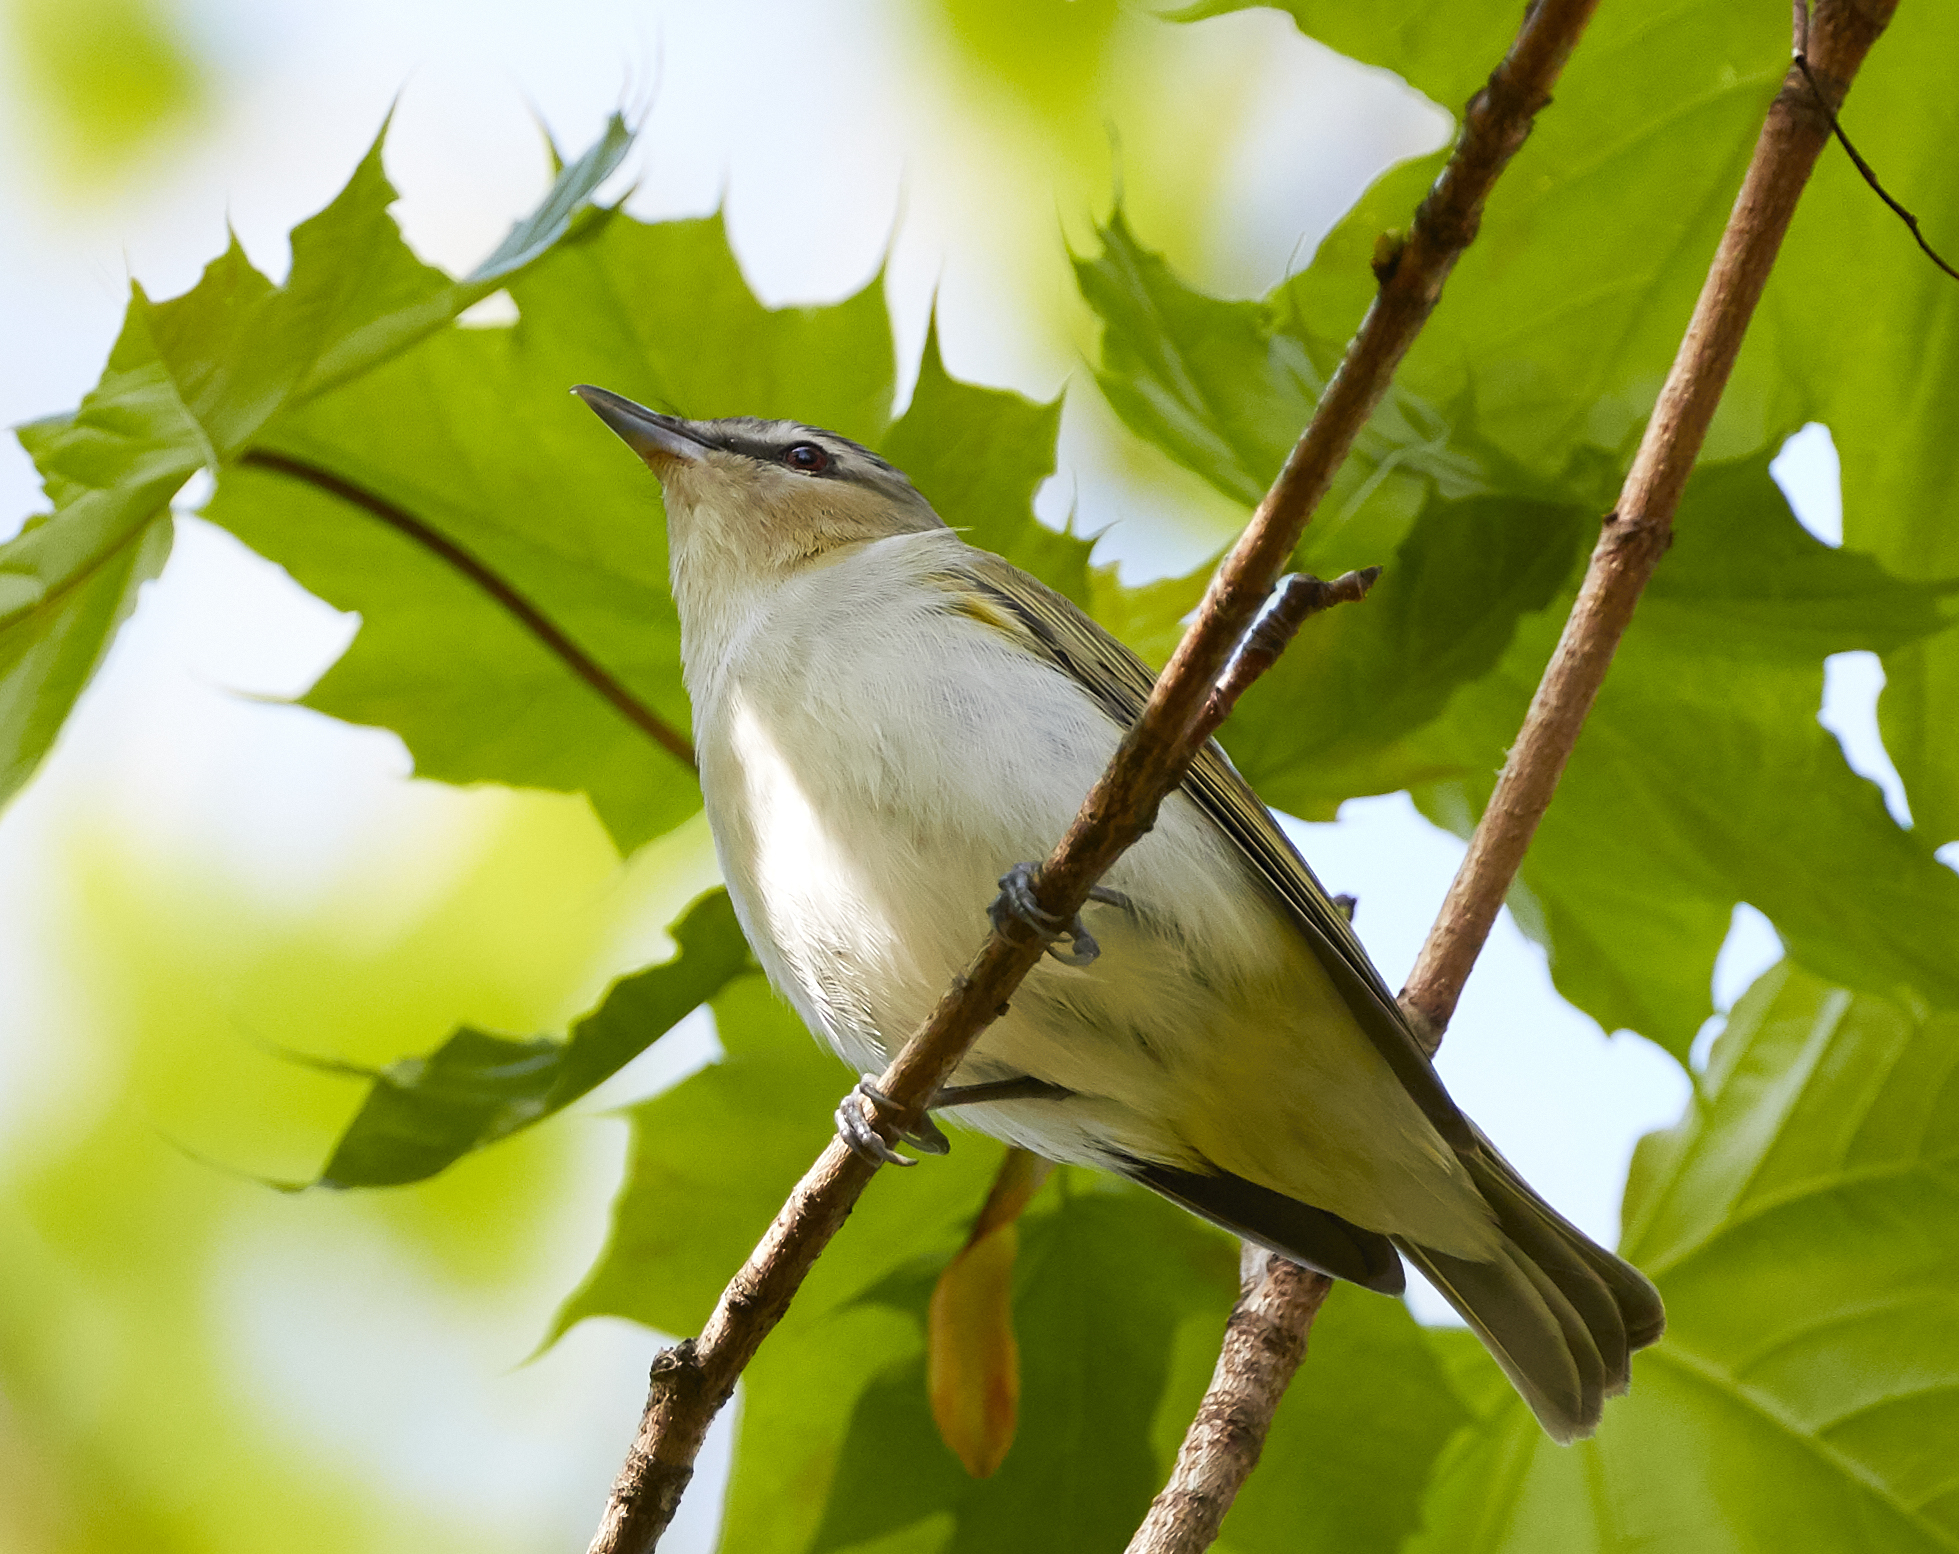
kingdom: Animalia
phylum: Chordata
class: Aves
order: Passeriformes
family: Vireonidae
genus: Vireo
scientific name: Vireo olivaceus
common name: Red-eyed vireo
